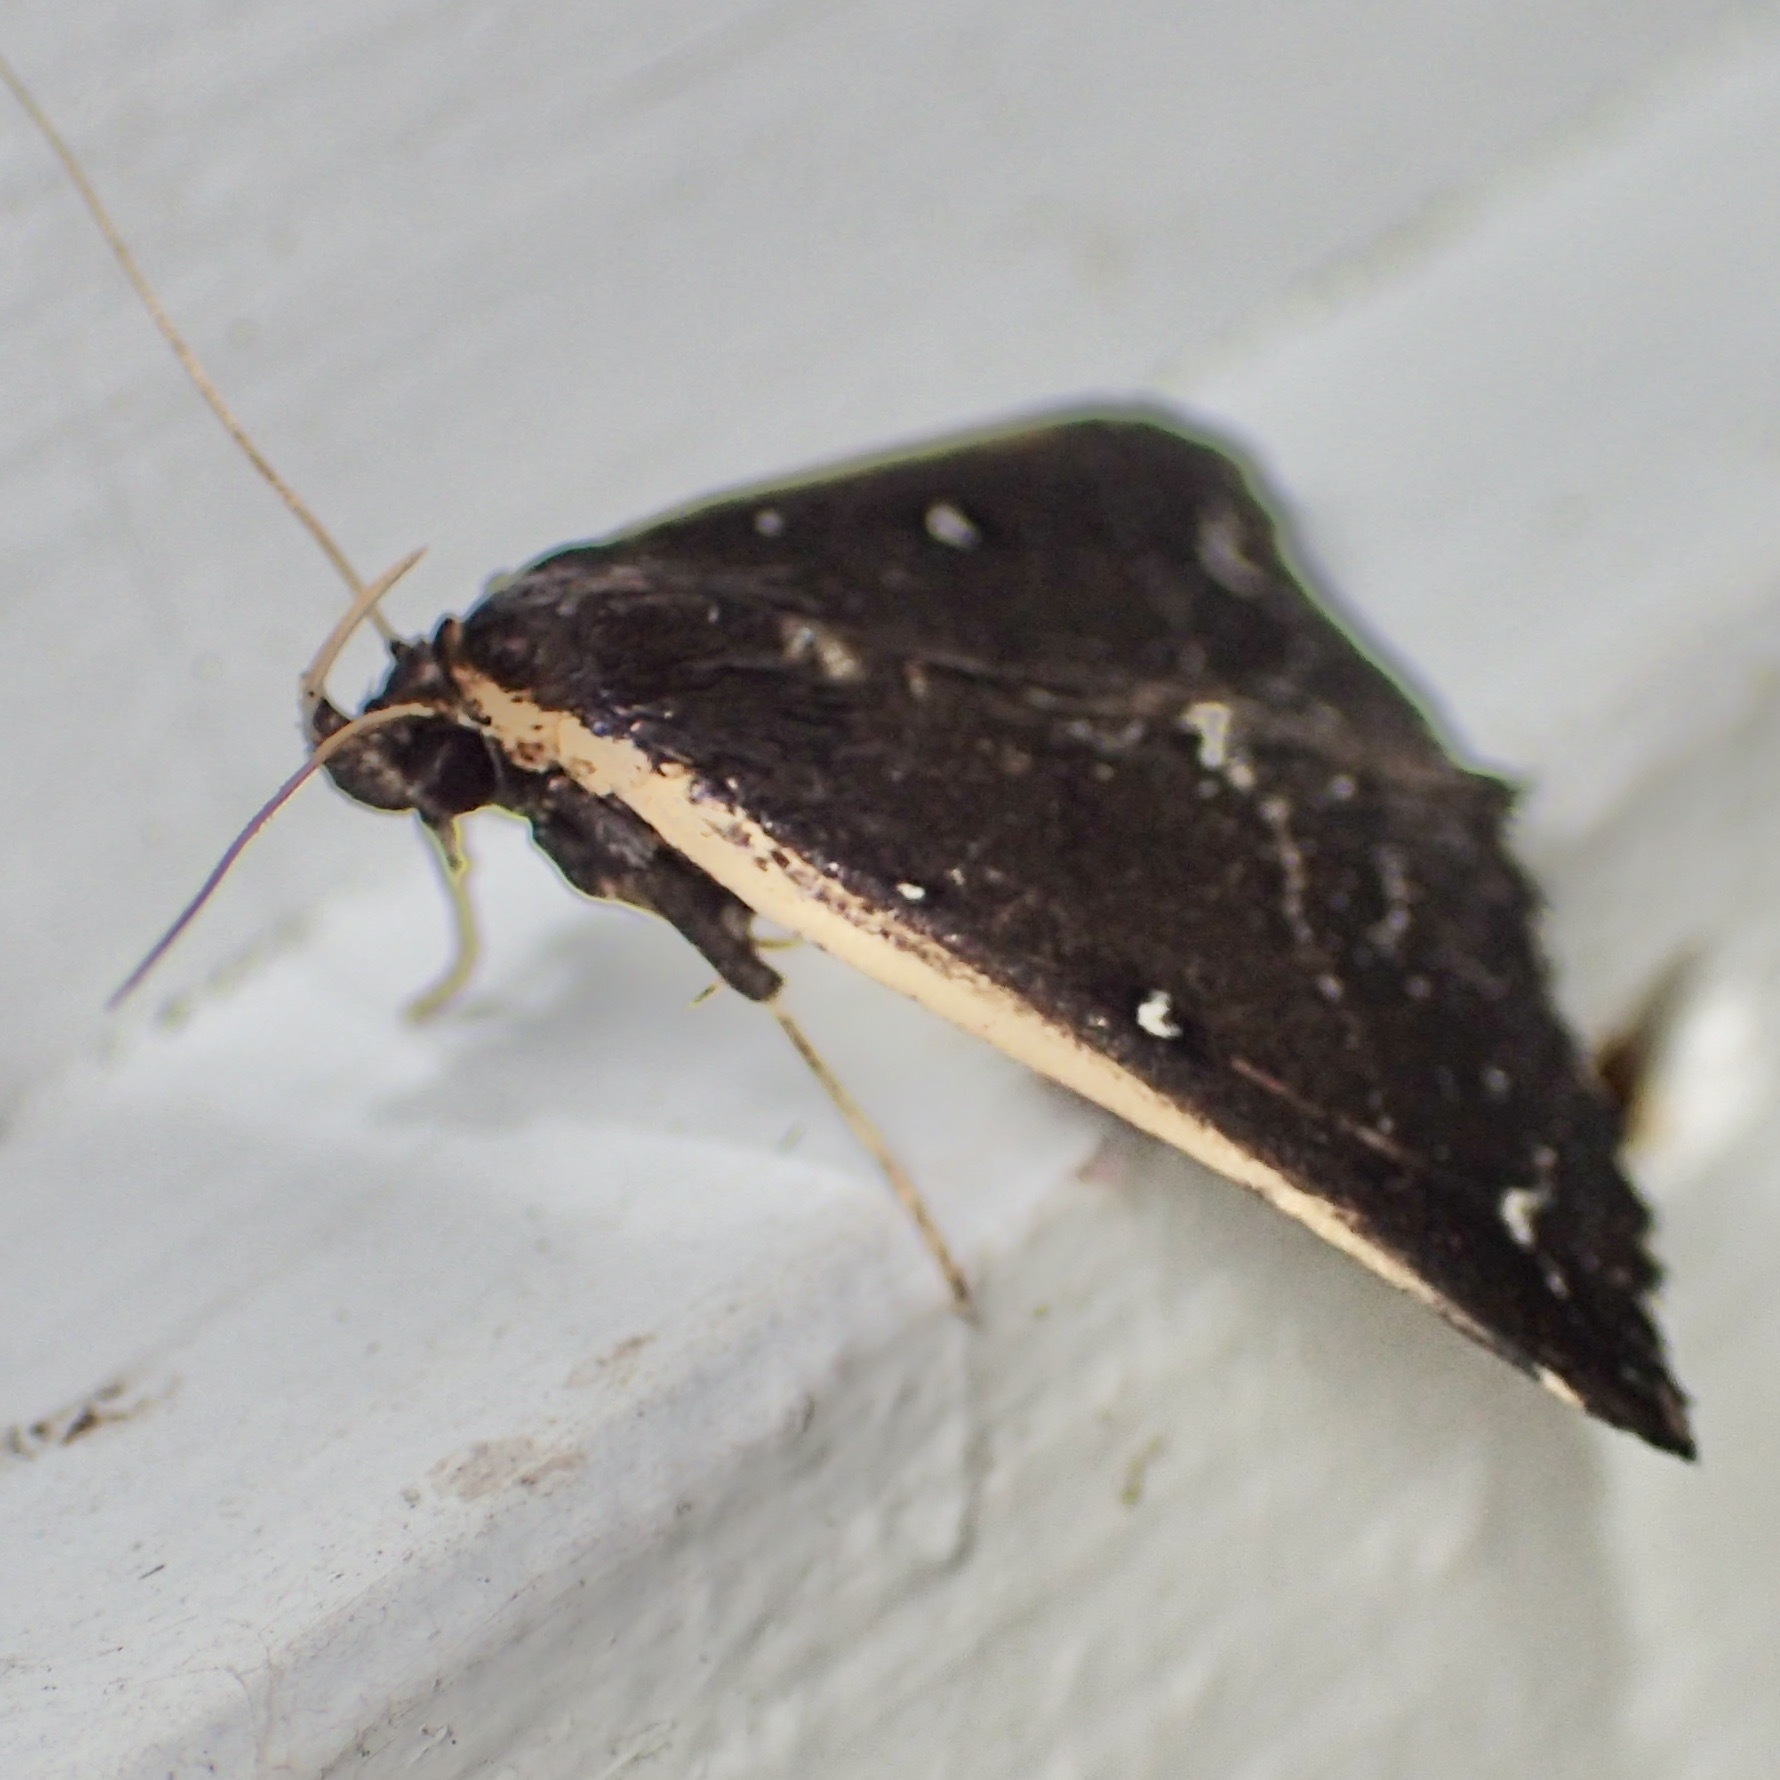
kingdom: Animalia
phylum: Arthropoda
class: Insecta
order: Lepidoptera
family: Erebidae
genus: Adrapsa
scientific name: Adrapsa ablualis
